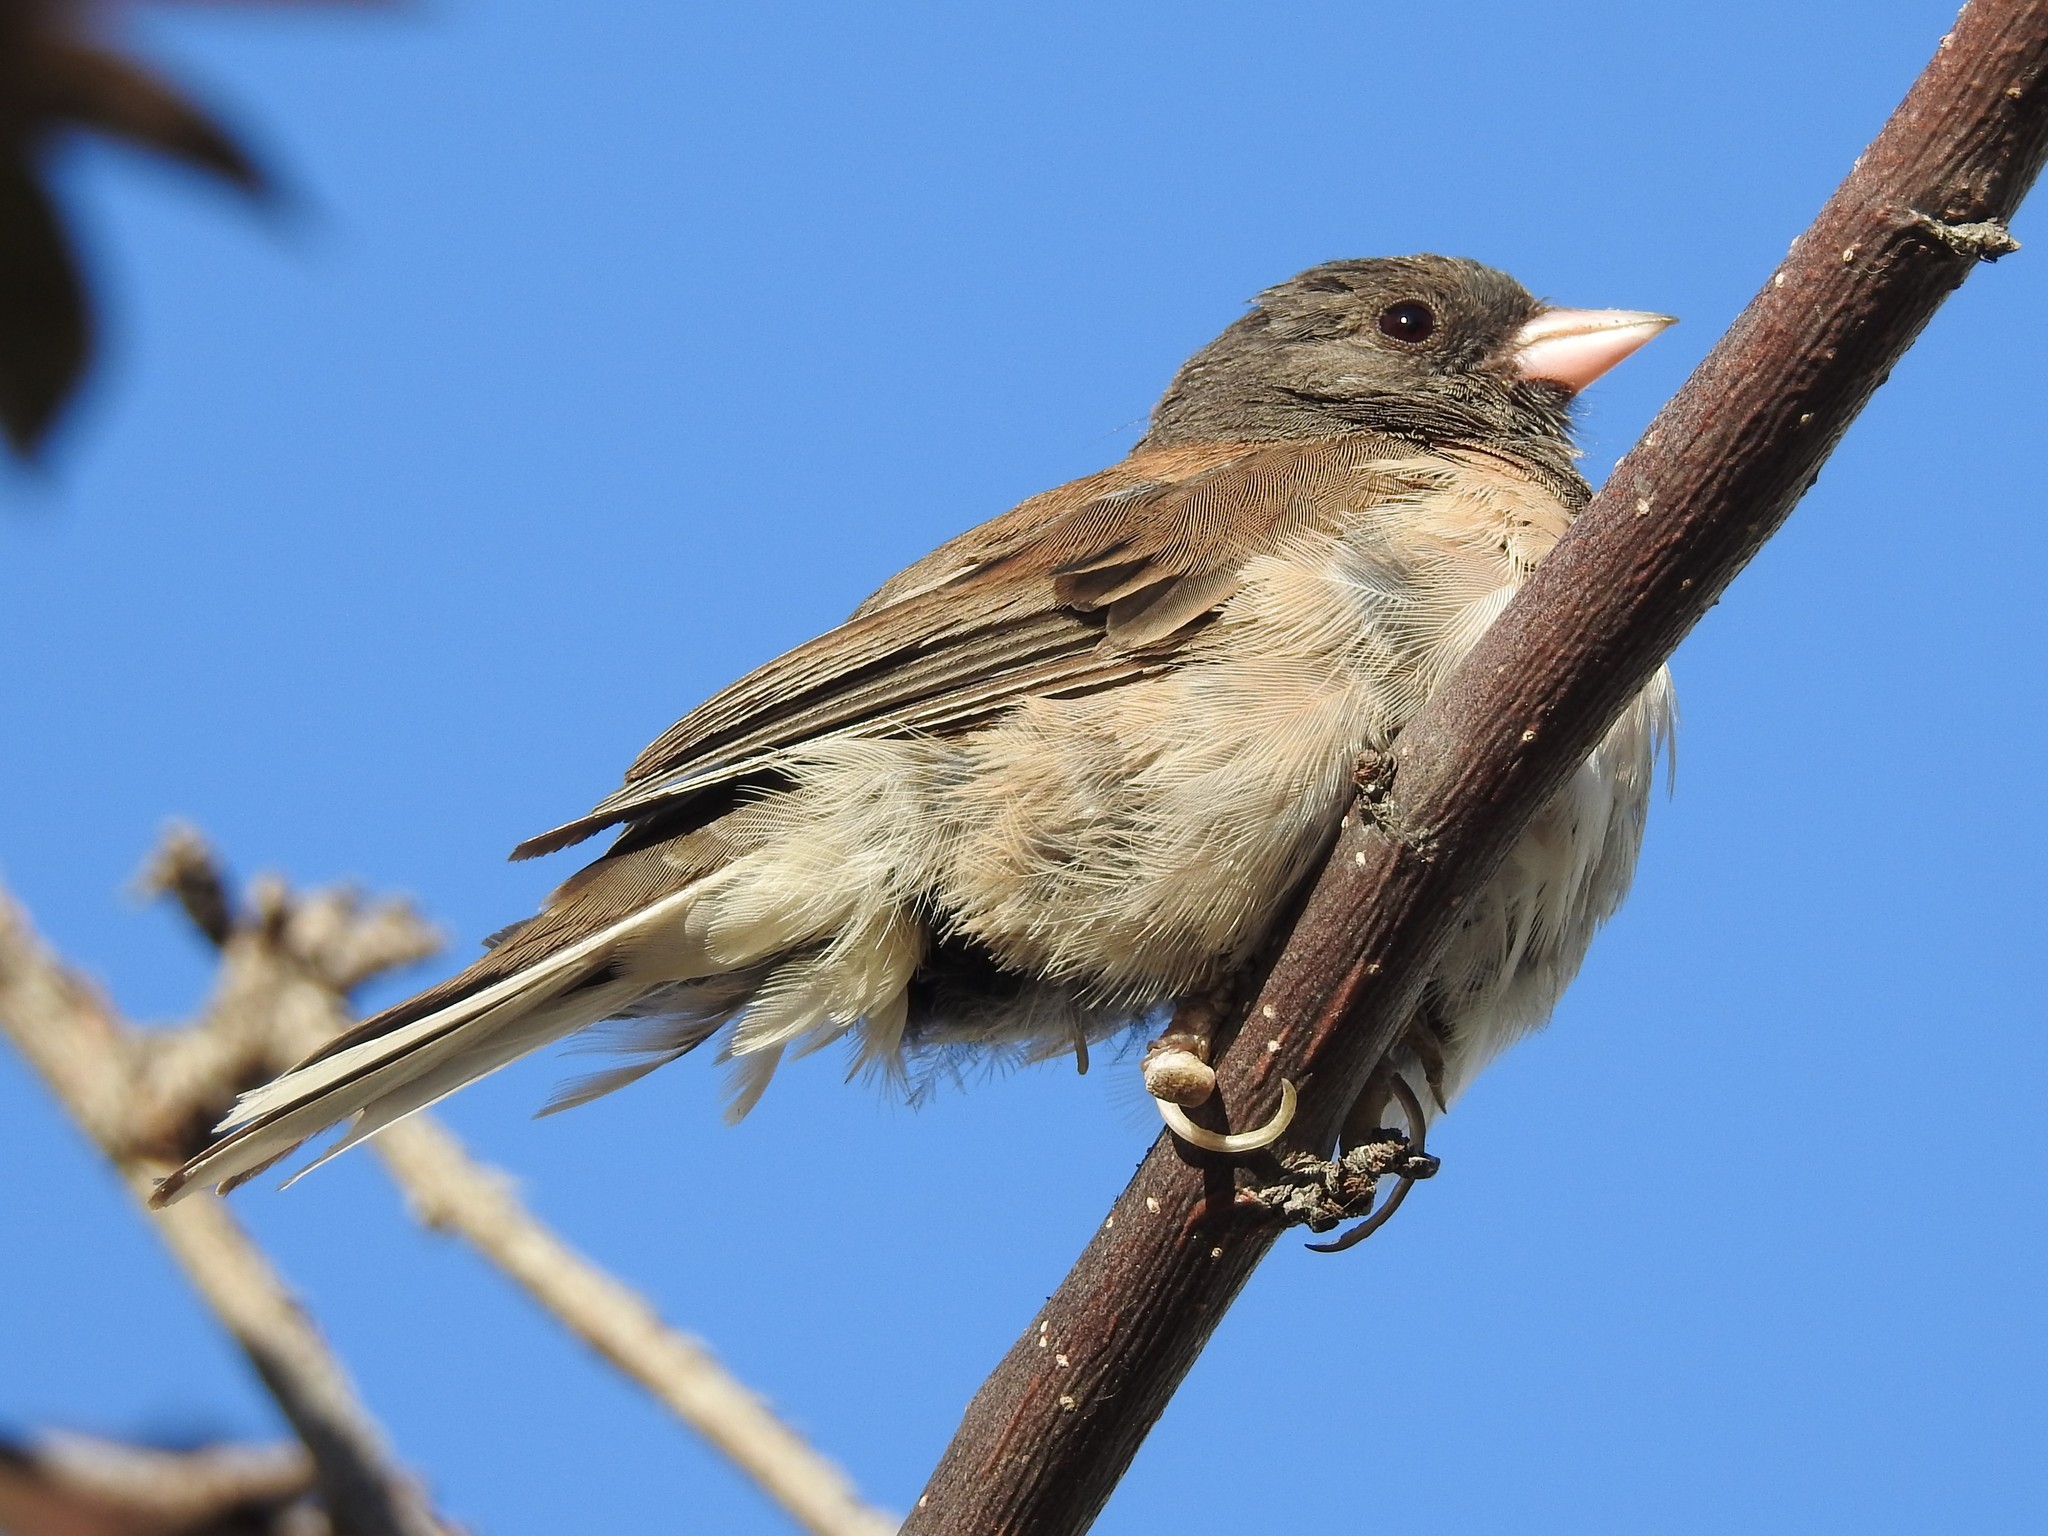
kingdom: Animalia
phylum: Chordata
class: Aves
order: Passeriformes
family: Passerellidae
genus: Junco
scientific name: Junco hyemalis
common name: Dark-eyed junco
